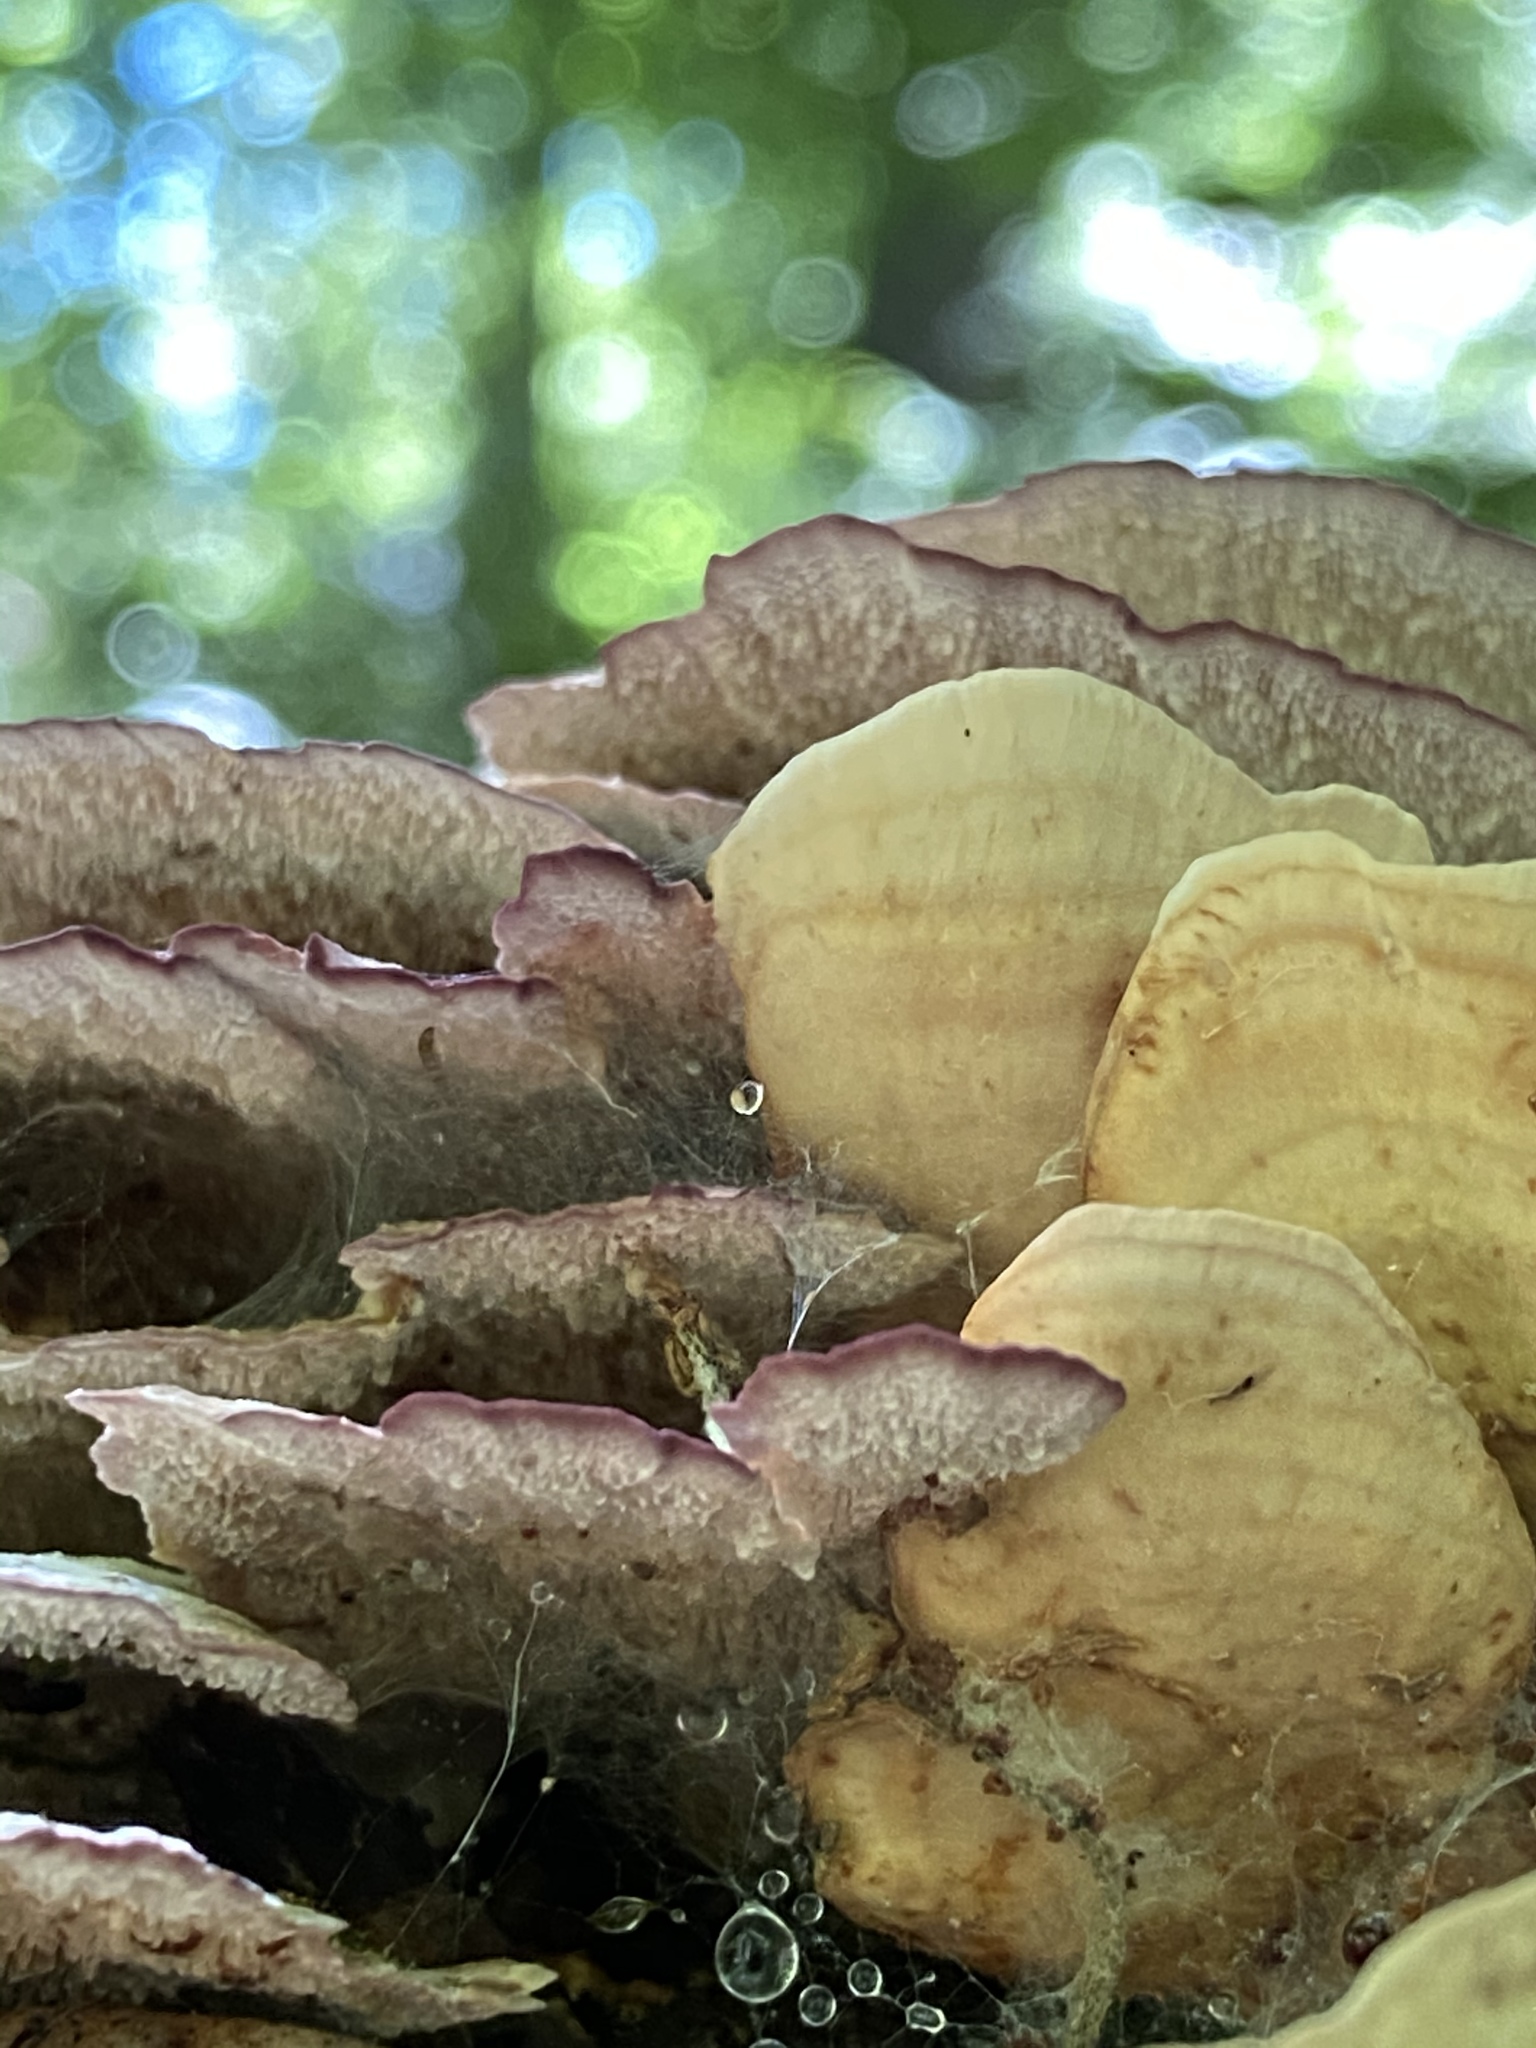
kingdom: Fungi
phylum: Basidiomycota
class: Agaricomycetes
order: Hymenochaetales
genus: Trichaptum
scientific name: Trichaptum biforme
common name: Violet-toothed polypore
